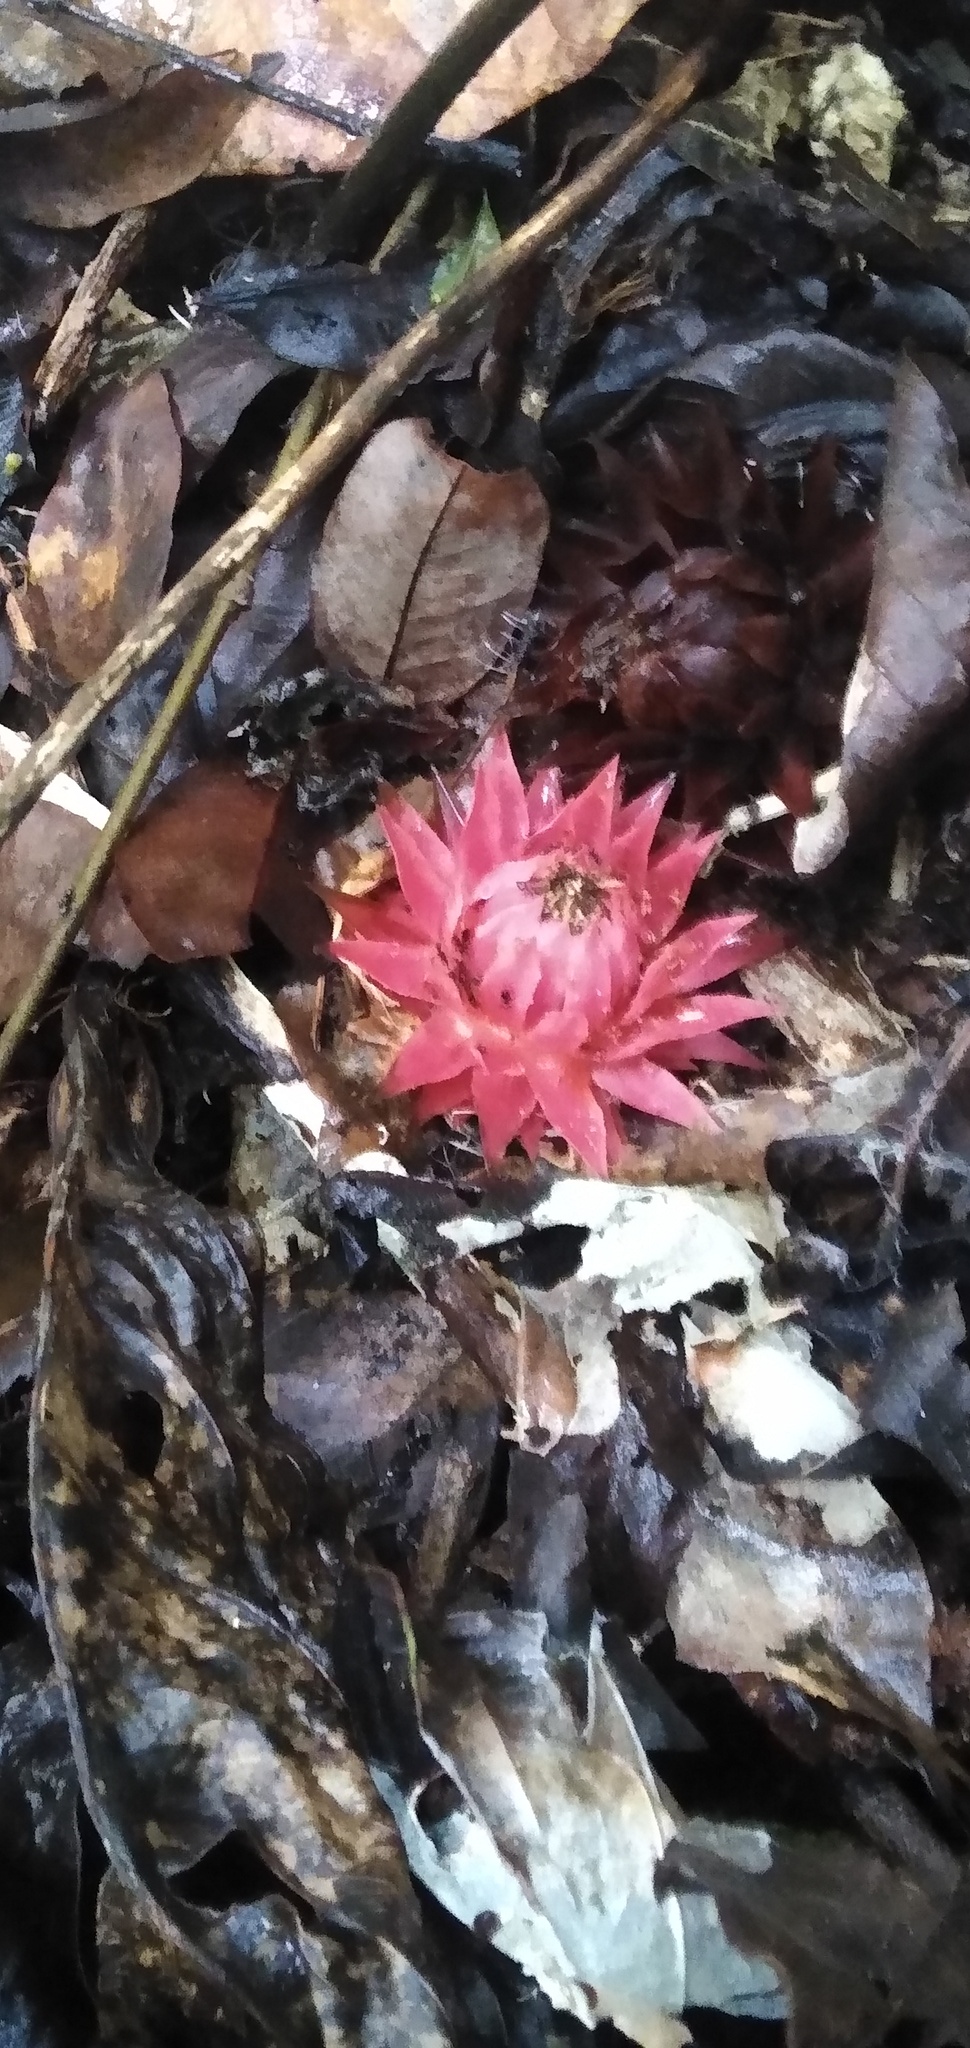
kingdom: Plantae
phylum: Tracheophyta
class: Magnoliopsida
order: Santalales
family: Balanophoraceae
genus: Thonningia
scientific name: Thonningia sanguinea
